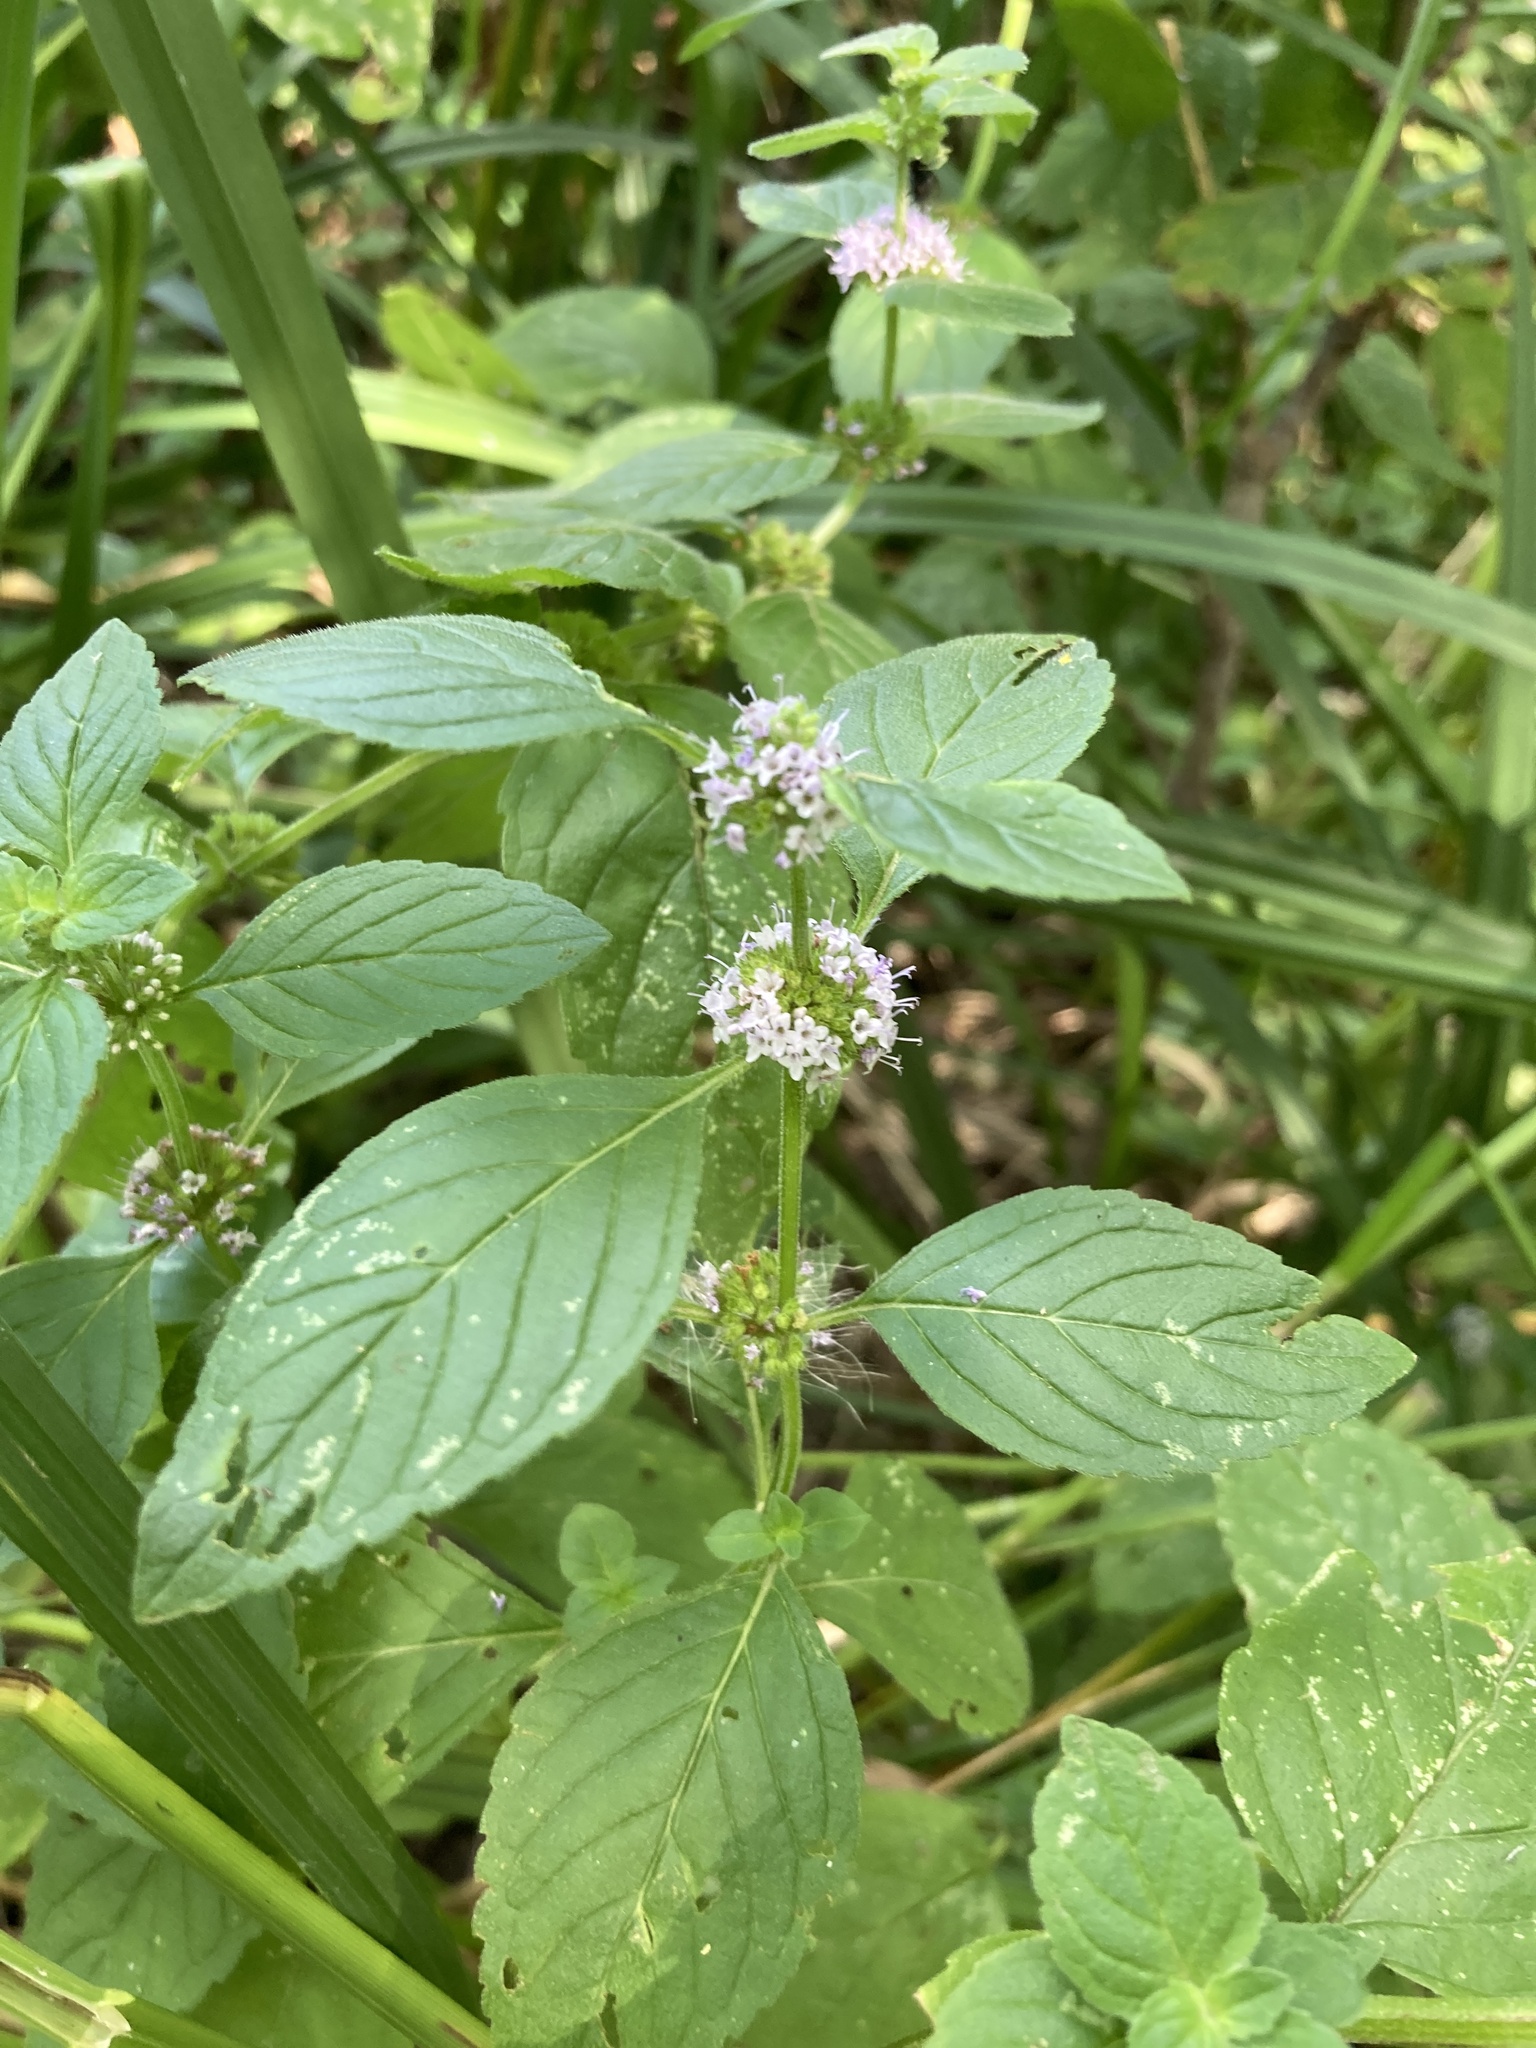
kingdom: Plantae
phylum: Tracheophyta
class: Magnoliopsida
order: Lamiales
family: Lamiaceae
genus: Mentha
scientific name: Mentha arvensis
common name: Corn mint
